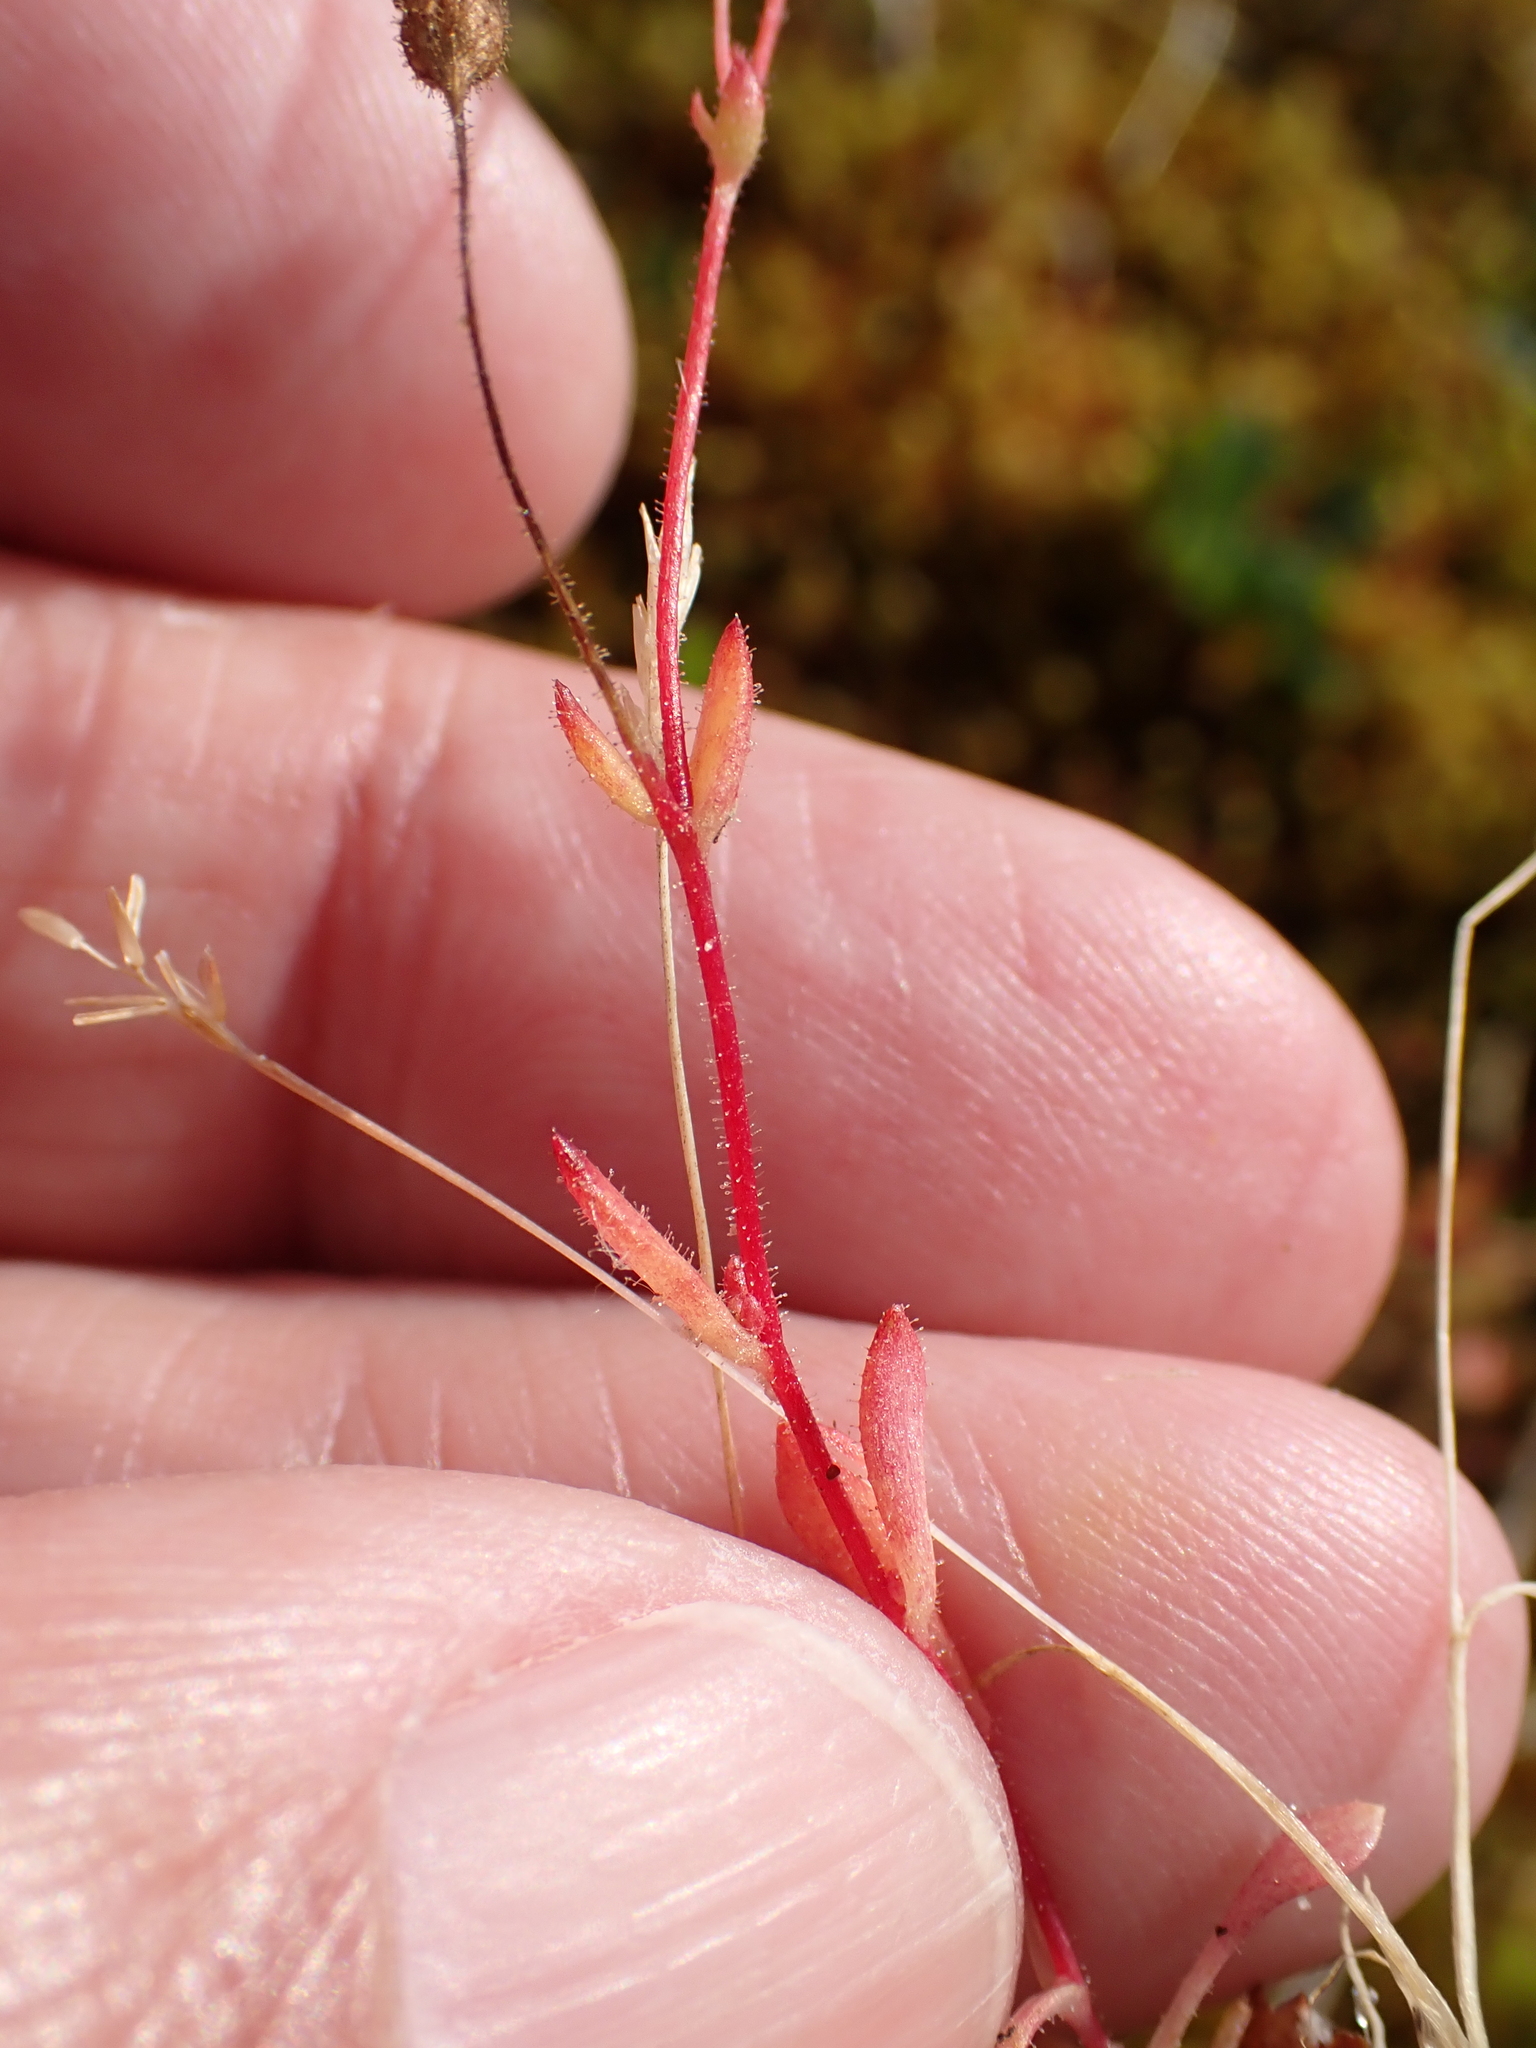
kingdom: Plantae
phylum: Tracheophyta
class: Magnoliopsida
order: Saxifragales
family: Saxifragaceae
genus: Saxifraga
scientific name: Saxifraga tridactylites
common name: Rue-leaved saxifrage
